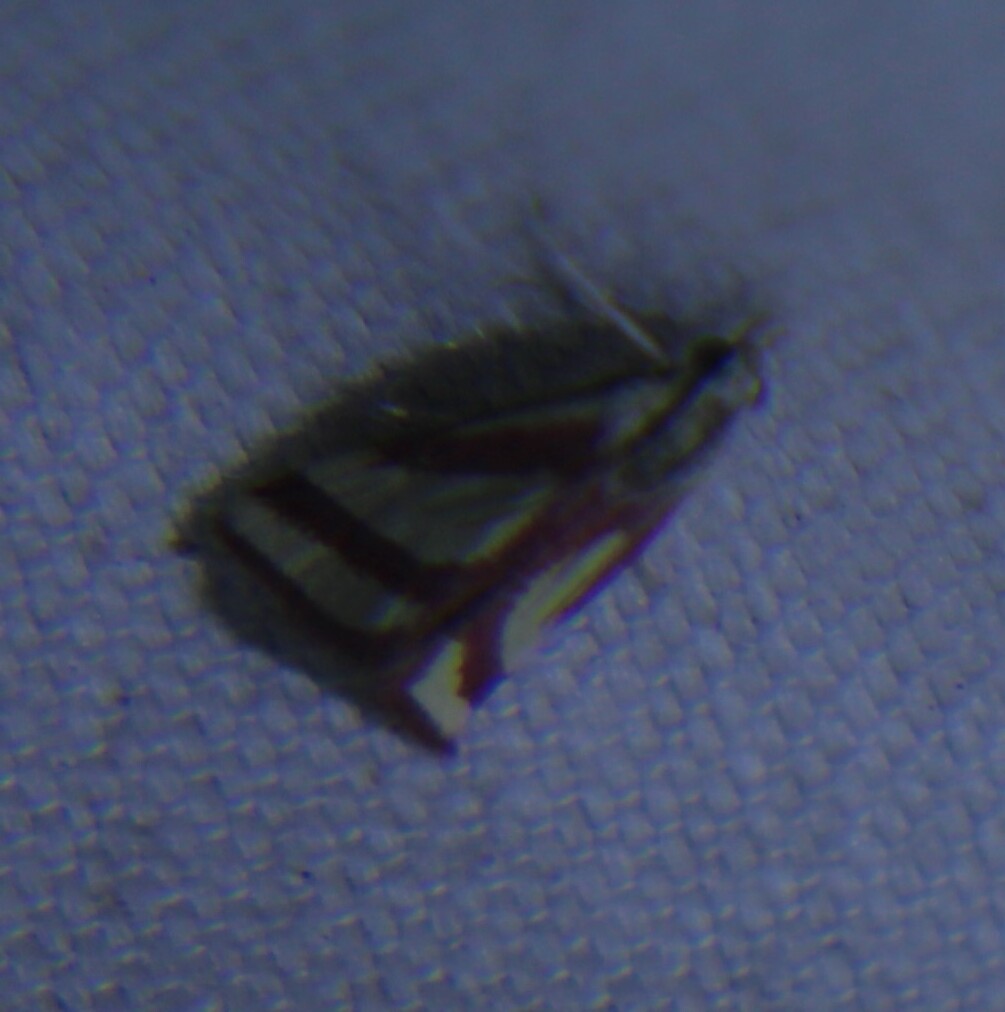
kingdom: Animalia
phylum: Arthropoda
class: Insecta
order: Lepidoptera
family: Crambidae
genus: Microtheoris
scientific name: Microtheoris vibicalis
